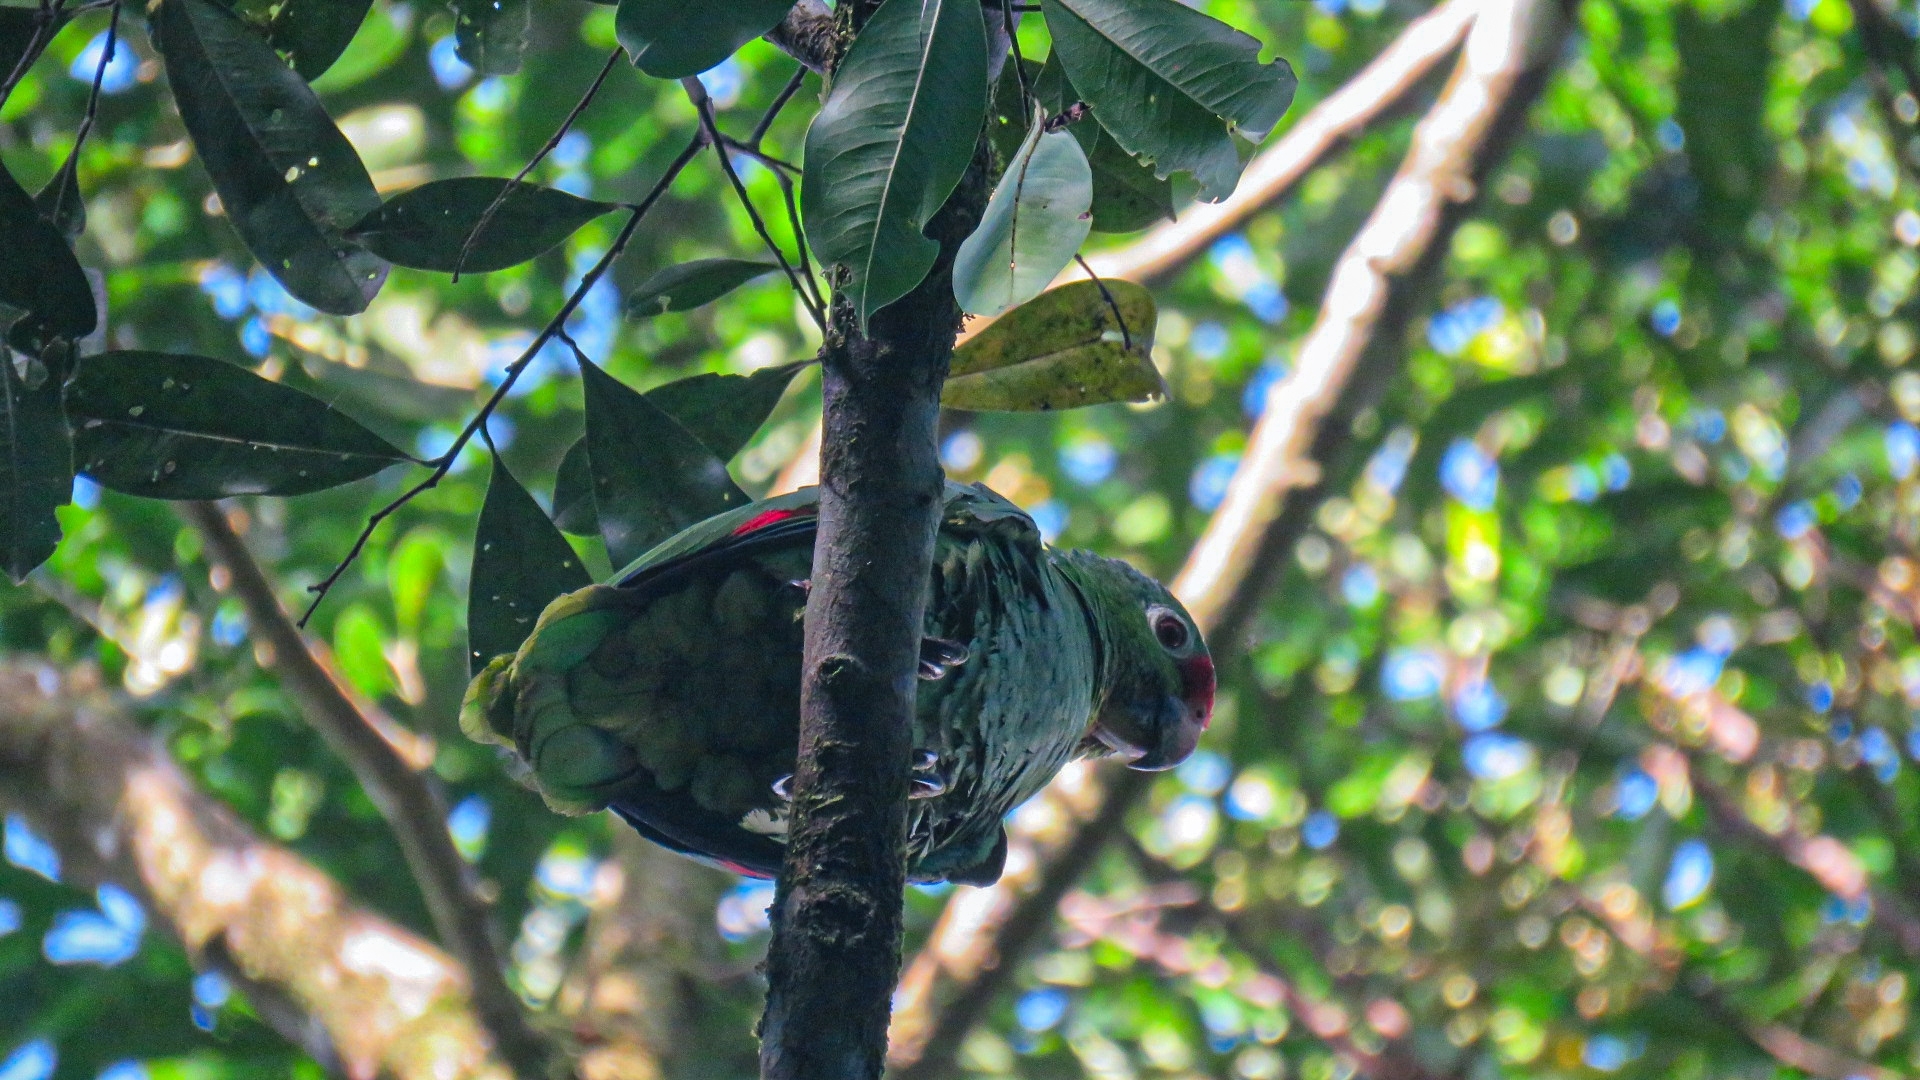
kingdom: Animalia
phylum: Chordata
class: Aves
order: Psittaciformes
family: Psittacidae
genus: Amazona
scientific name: Amazona autumnalis
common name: Red-lored amazon
